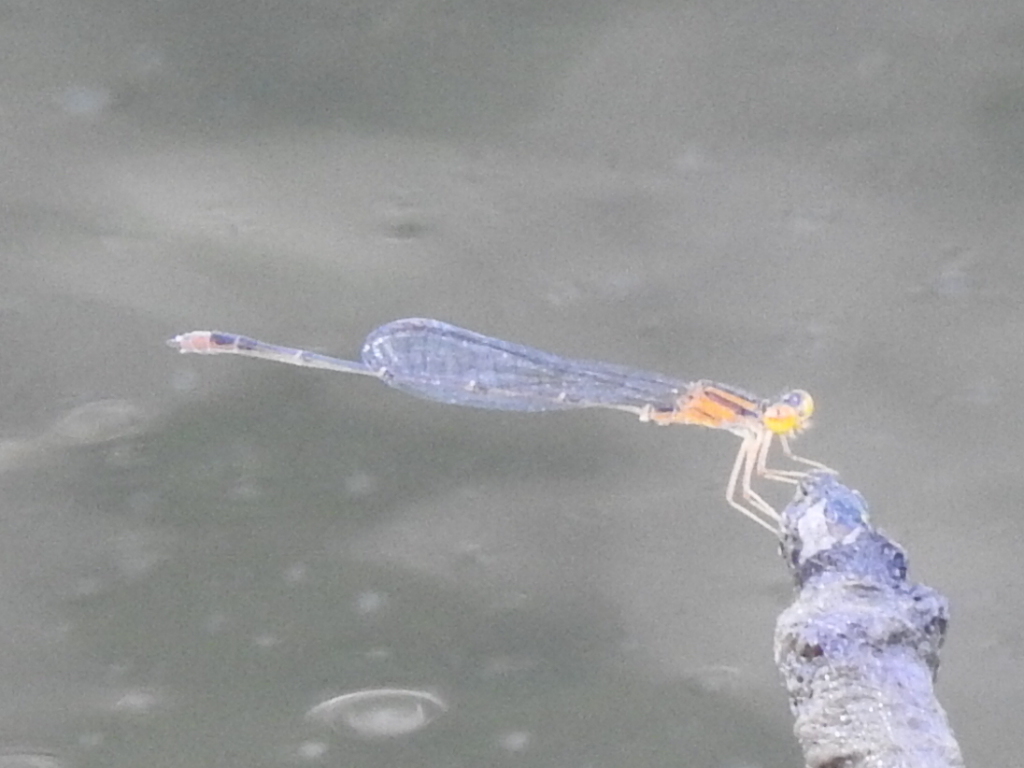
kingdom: Animalia
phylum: Arthropoda
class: Insecta
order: Odonata
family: Coenagrionidae
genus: Enallagma
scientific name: Enallagma signatum
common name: Orange bluet
